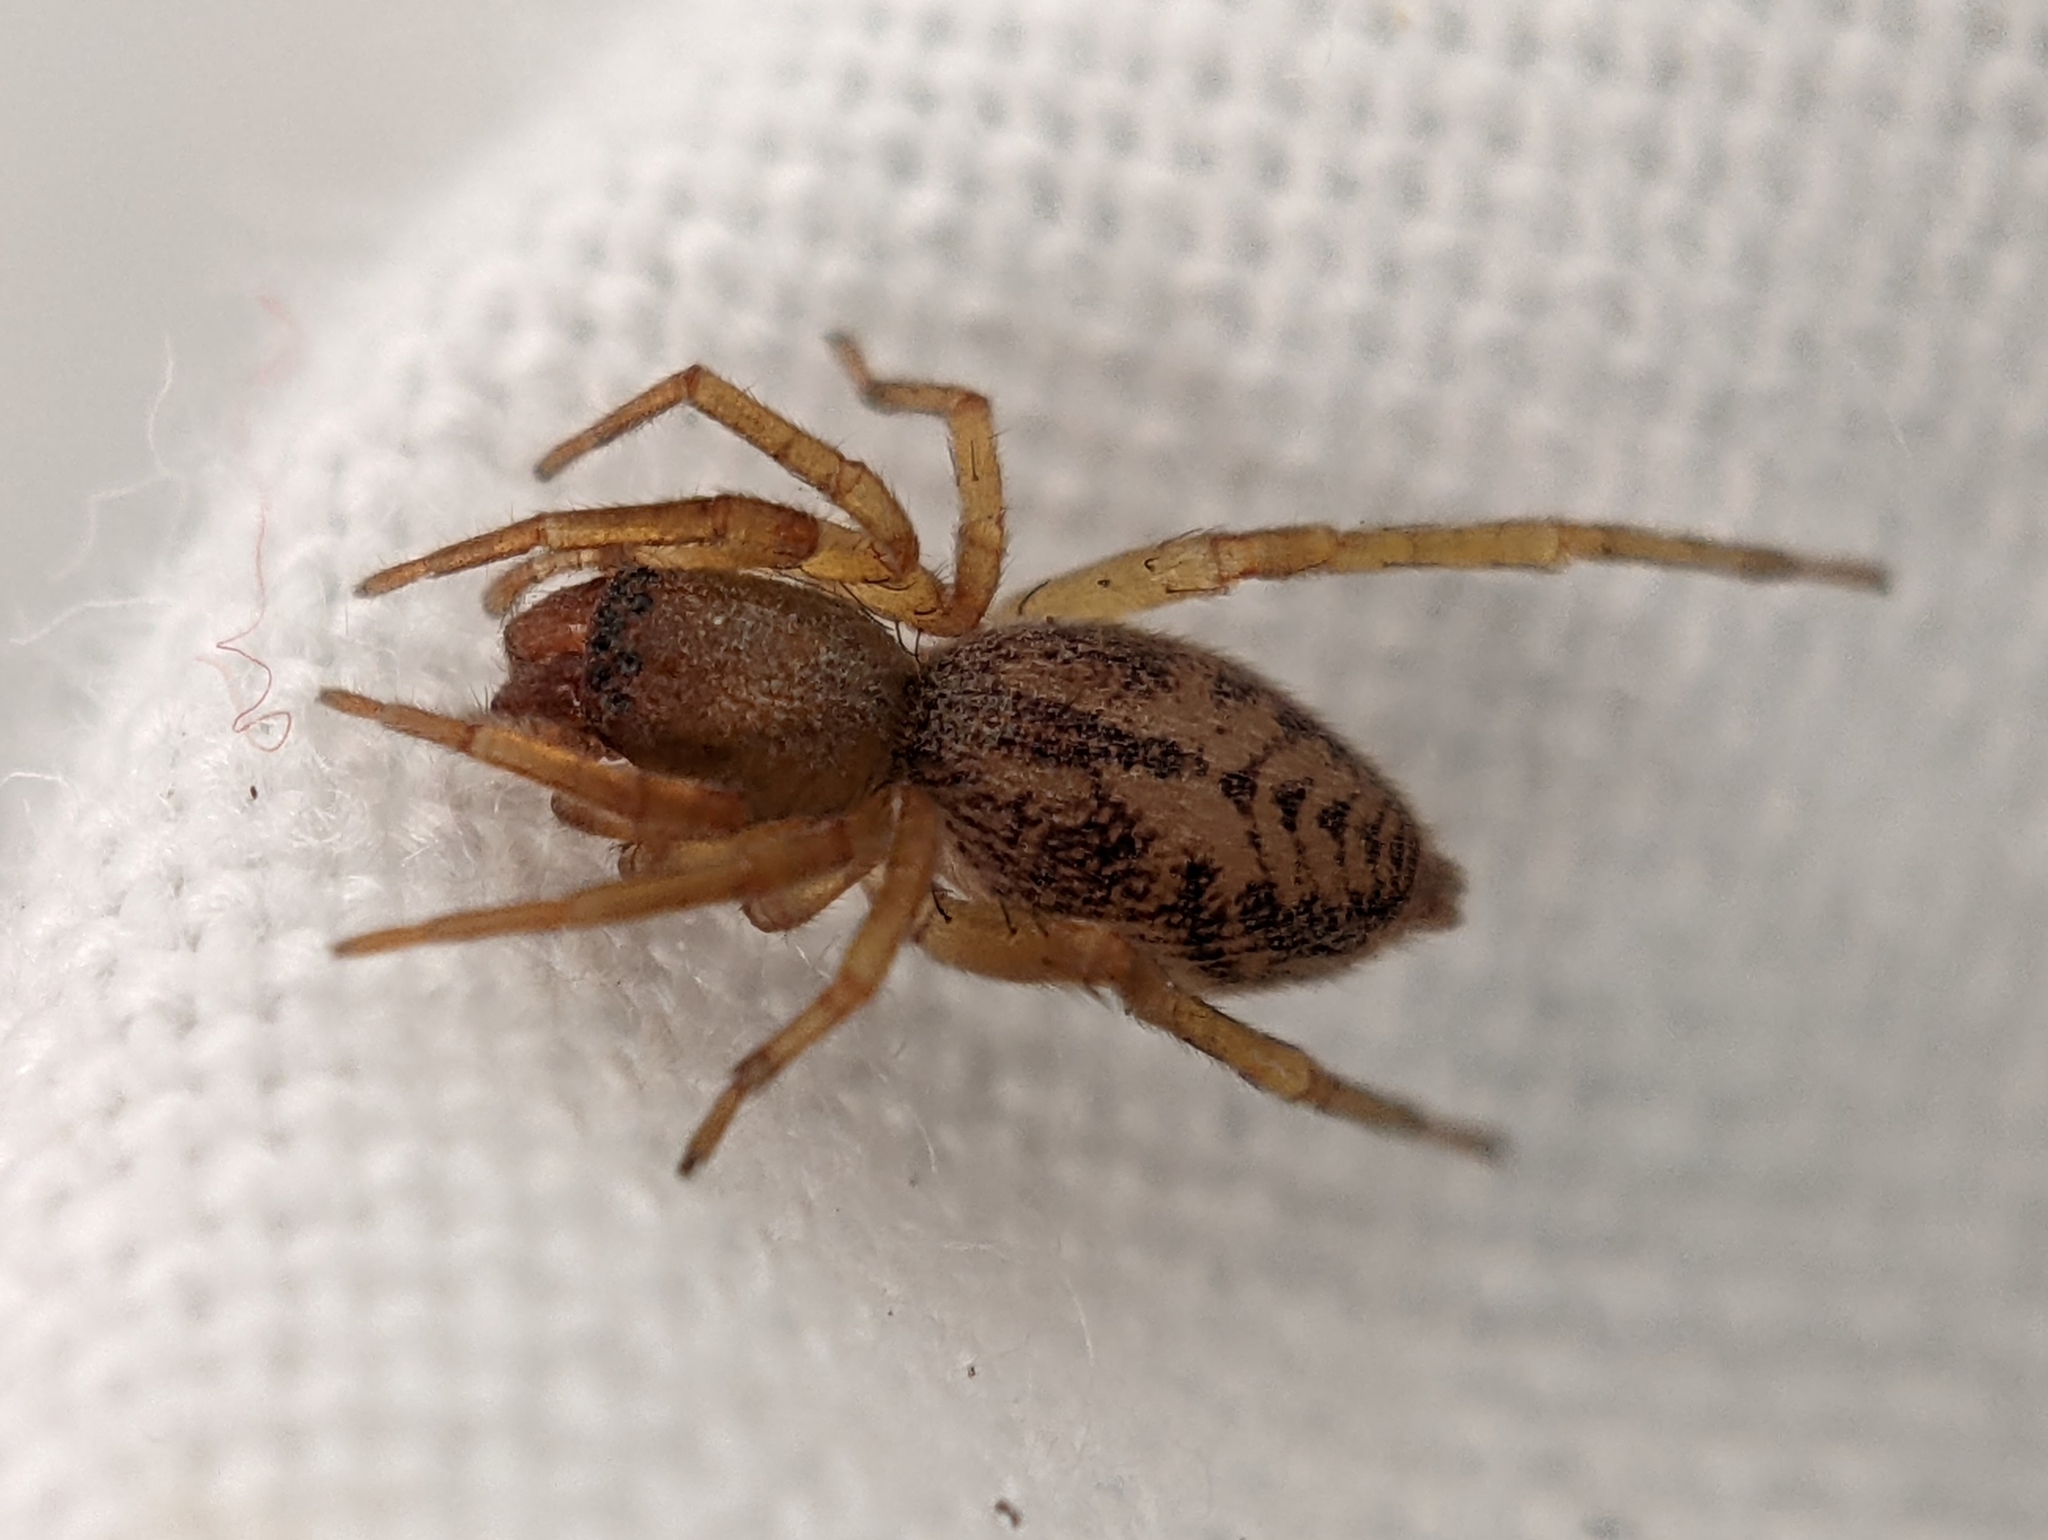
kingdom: Animalia
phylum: Arthropoda
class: Arachnida
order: Araneae
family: Clubionidae
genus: Clubiona
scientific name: Clubiona comta
